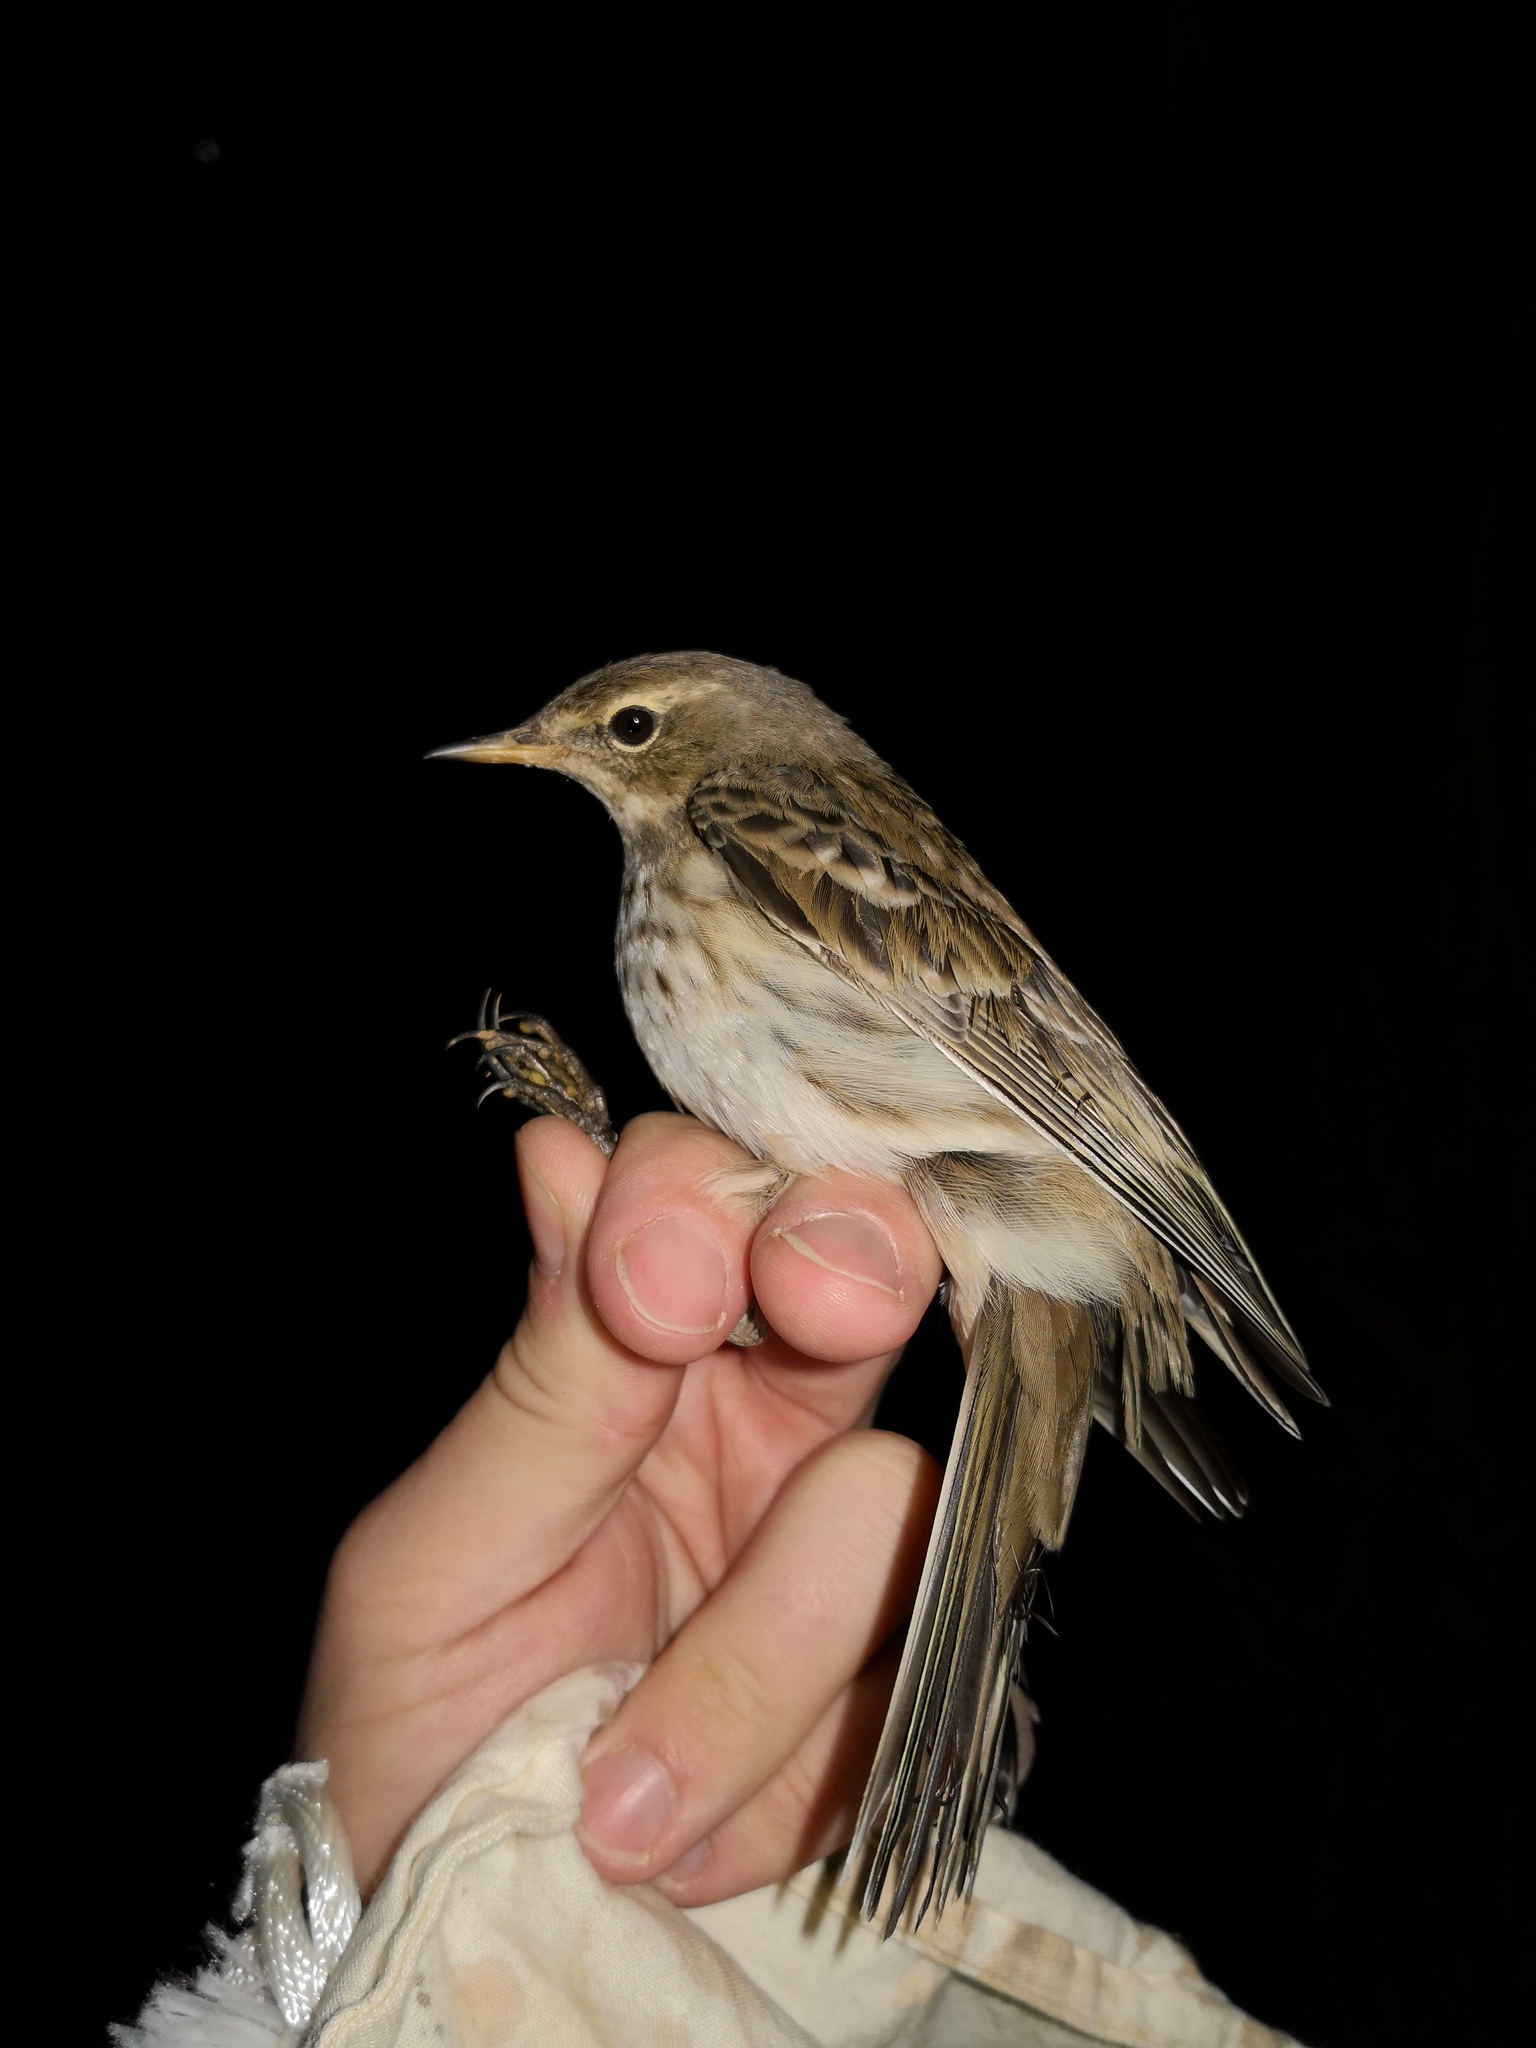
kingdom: Animalia
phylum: Chordata
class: Aves
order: Passeriformes
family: Motacillidae
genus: Anthus
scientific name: Anthus spinoletta
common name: Water pipit
